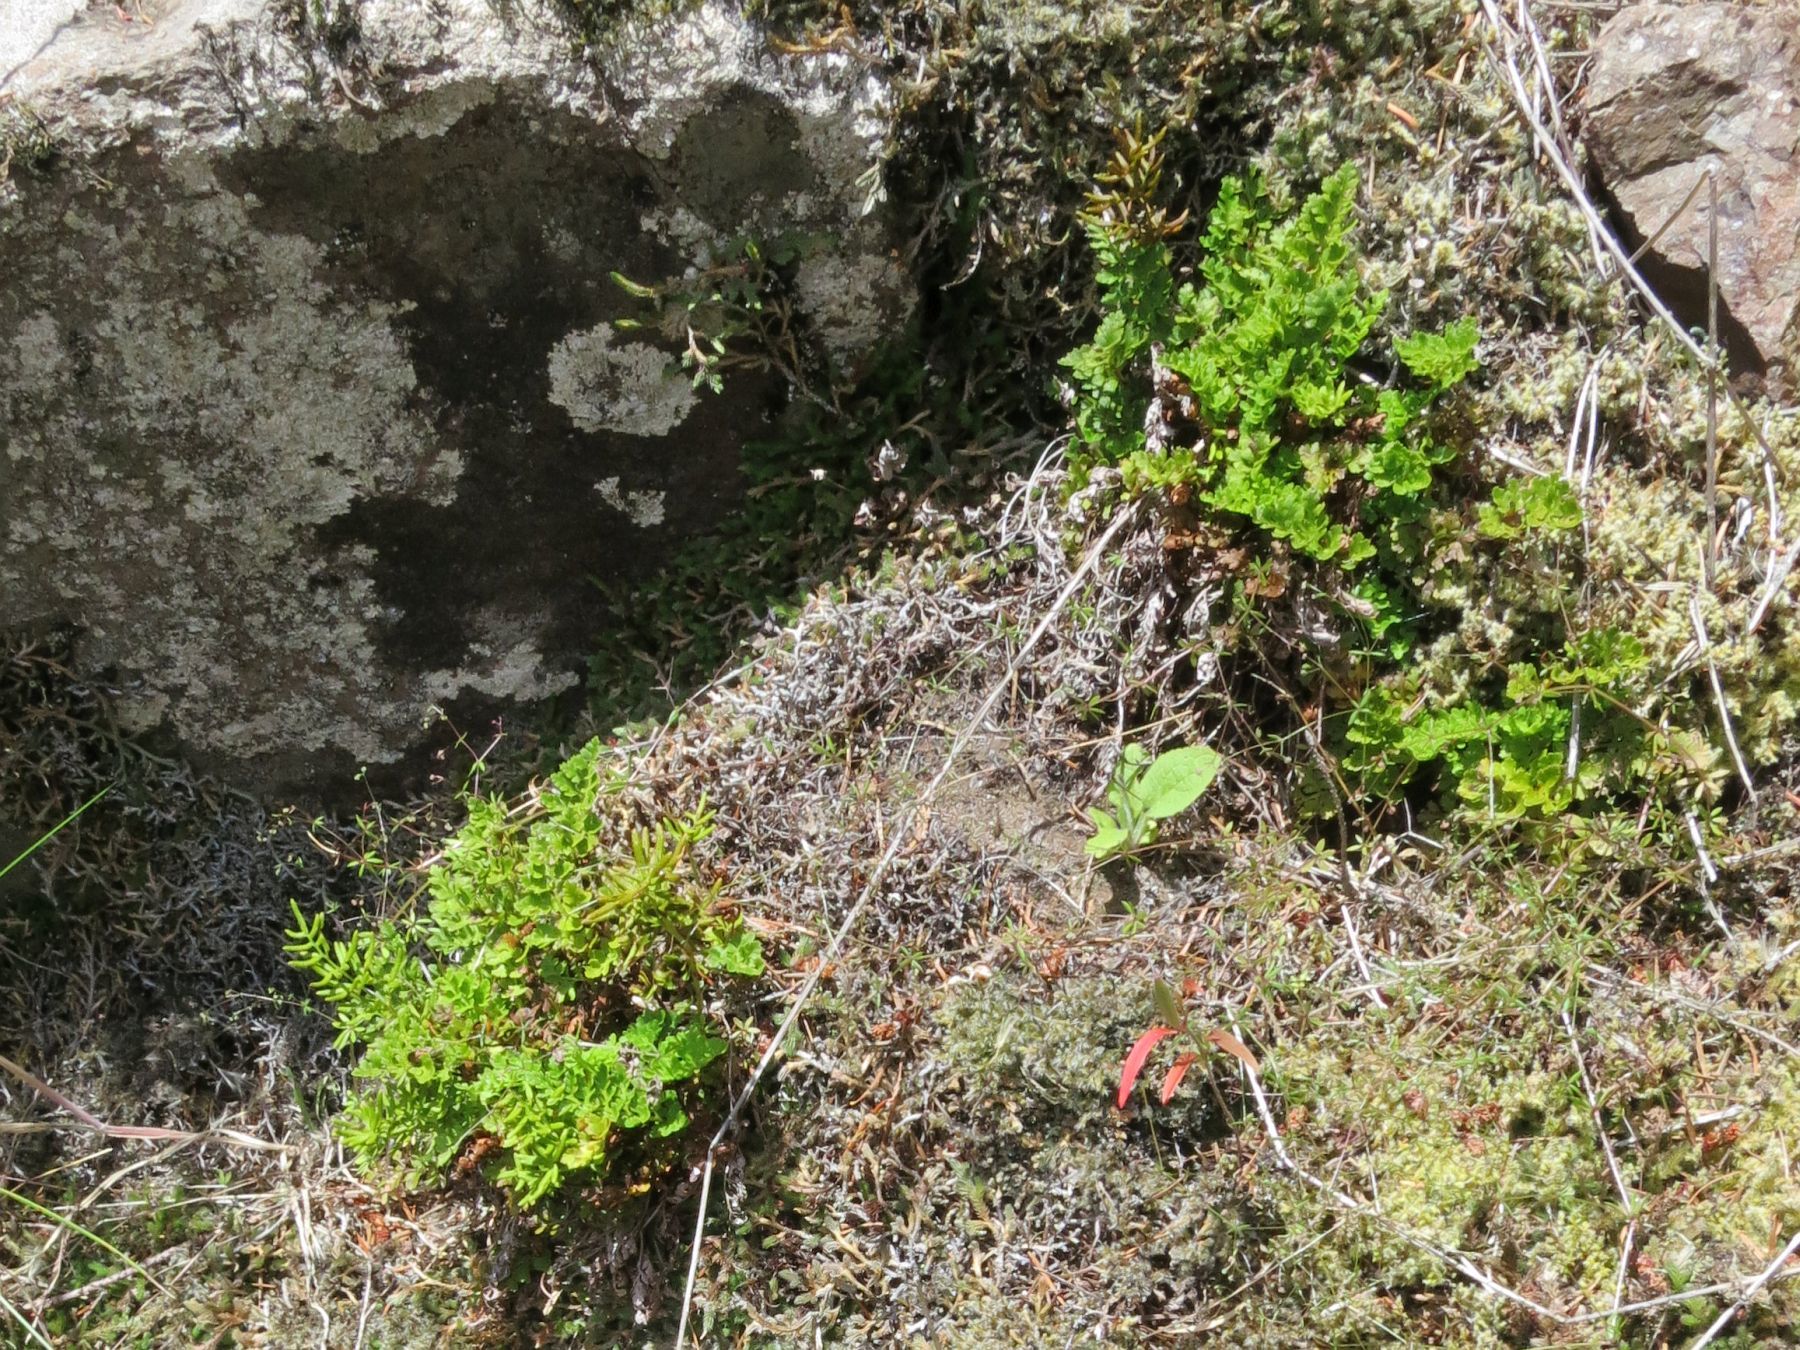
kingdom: Plantae
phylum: Tracheophyta
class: Polypodiopsida
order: Polypodiales
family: Pteridaceae
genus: Cryptogramma
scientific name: Cryptogramma acrostichoides
